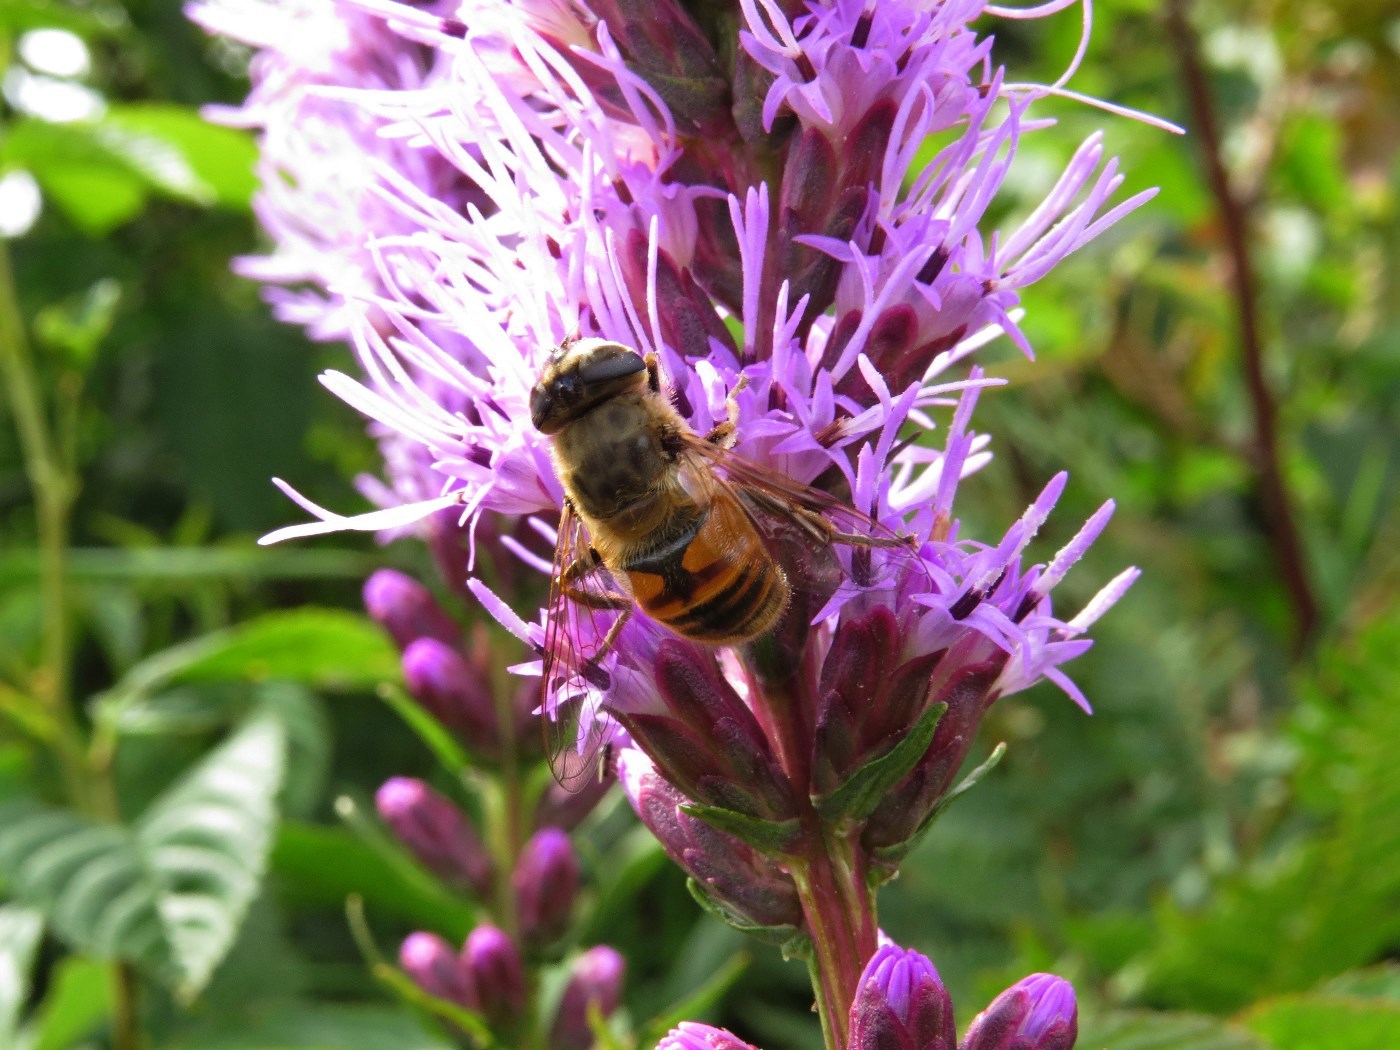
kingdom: Animalia
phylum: Arthropoda
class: Insecta
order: Diptera
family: Syrphidae
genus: Eristalis
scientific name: Eristalis tenax
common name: Drone fly
